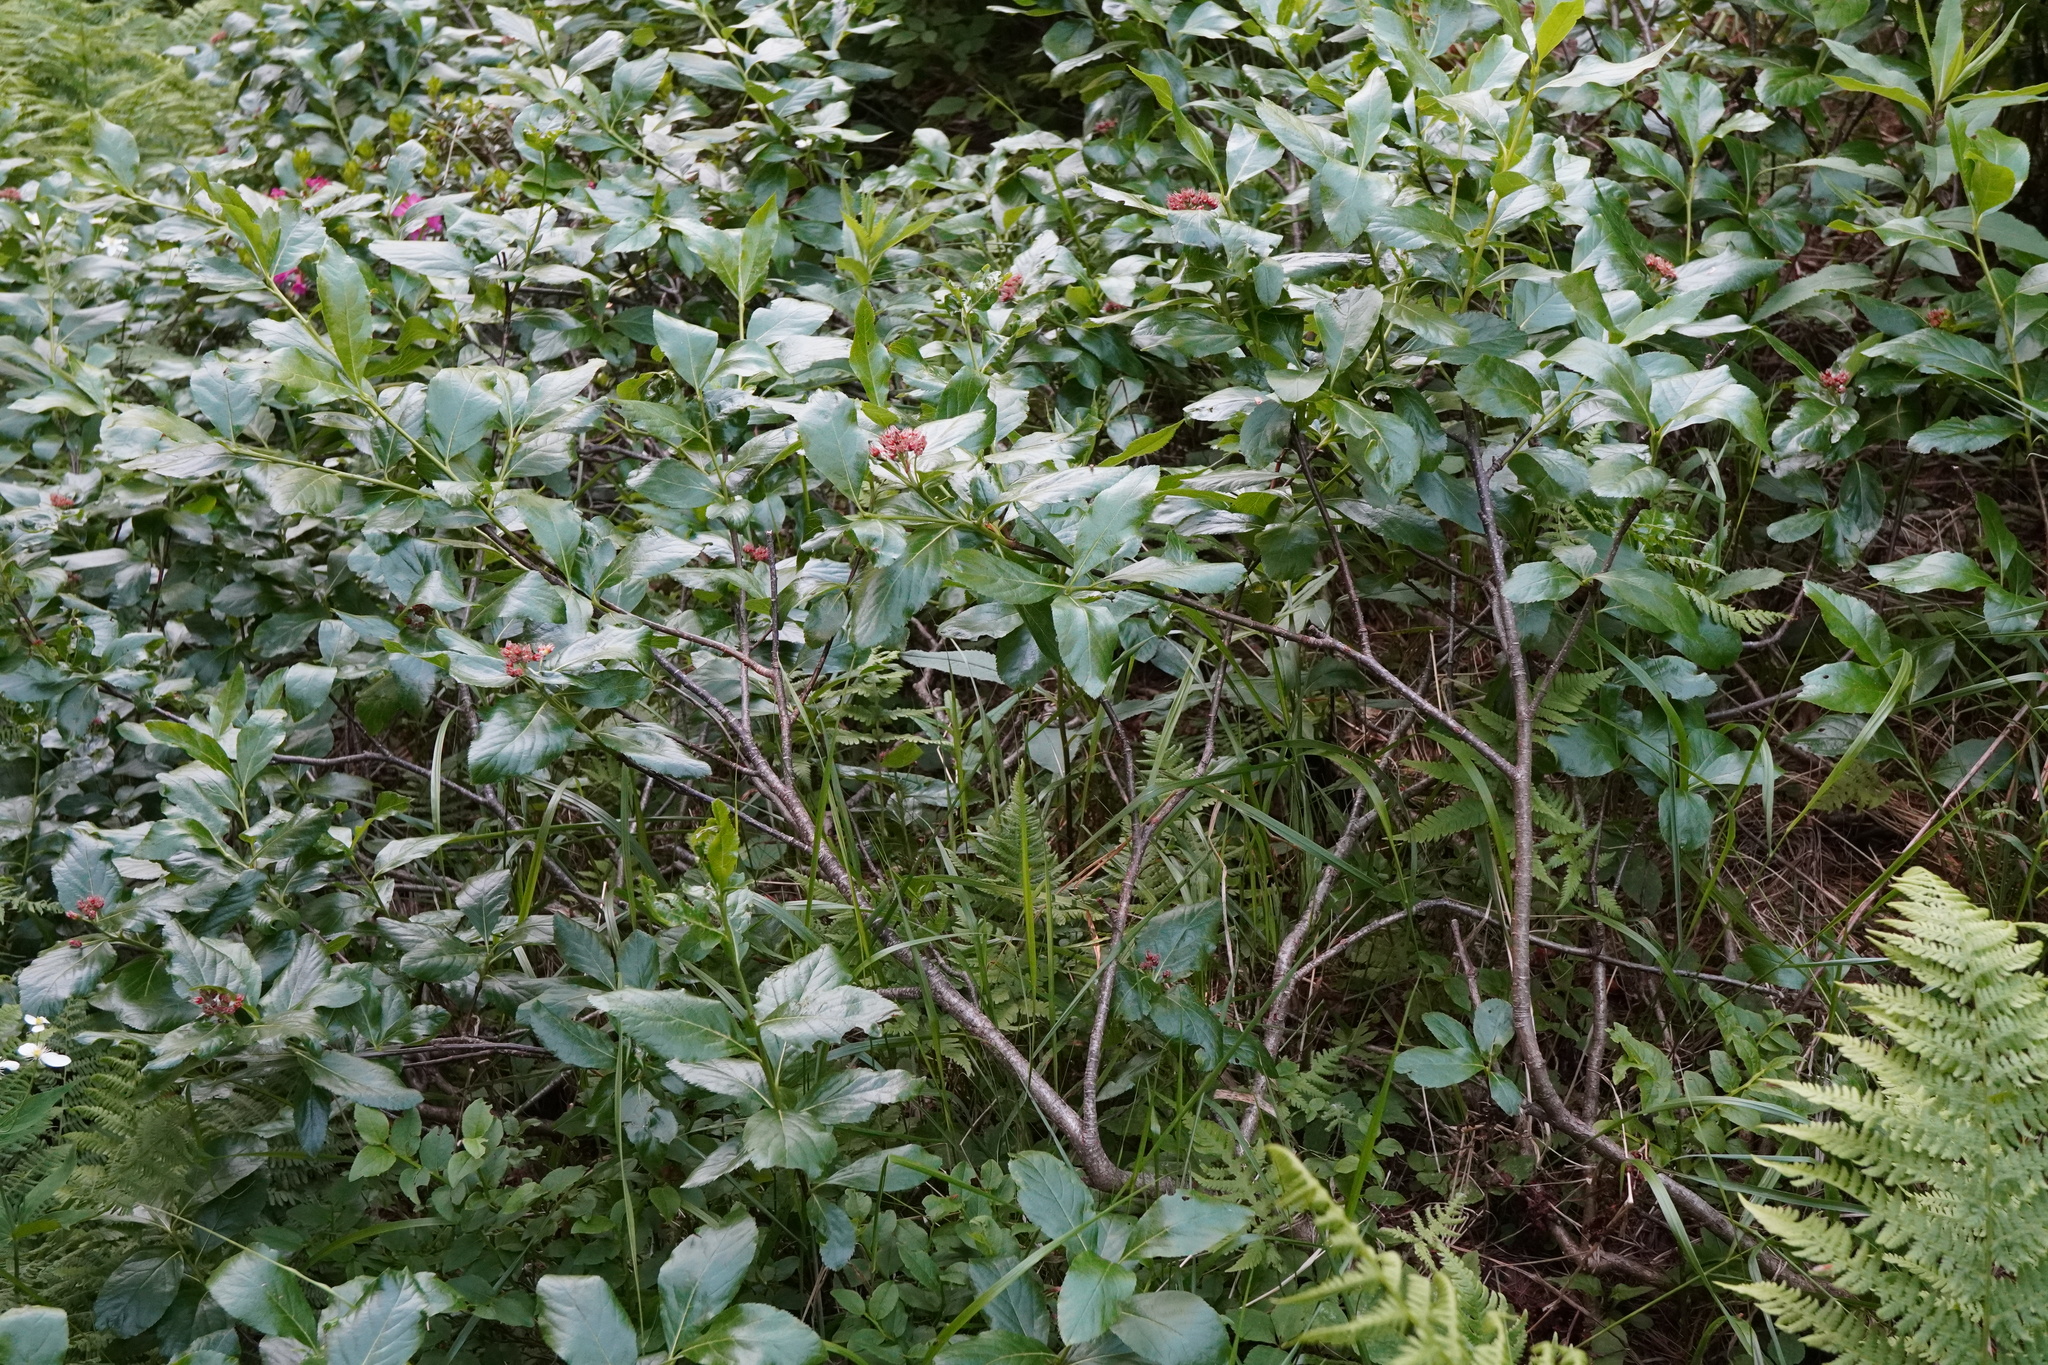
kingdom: Plantae
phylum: Tracheophyta
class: Magnoliopsida
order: Rosales
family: Rosaceae
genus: Chamaemespilus
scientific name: Chamaemespilus alpina
